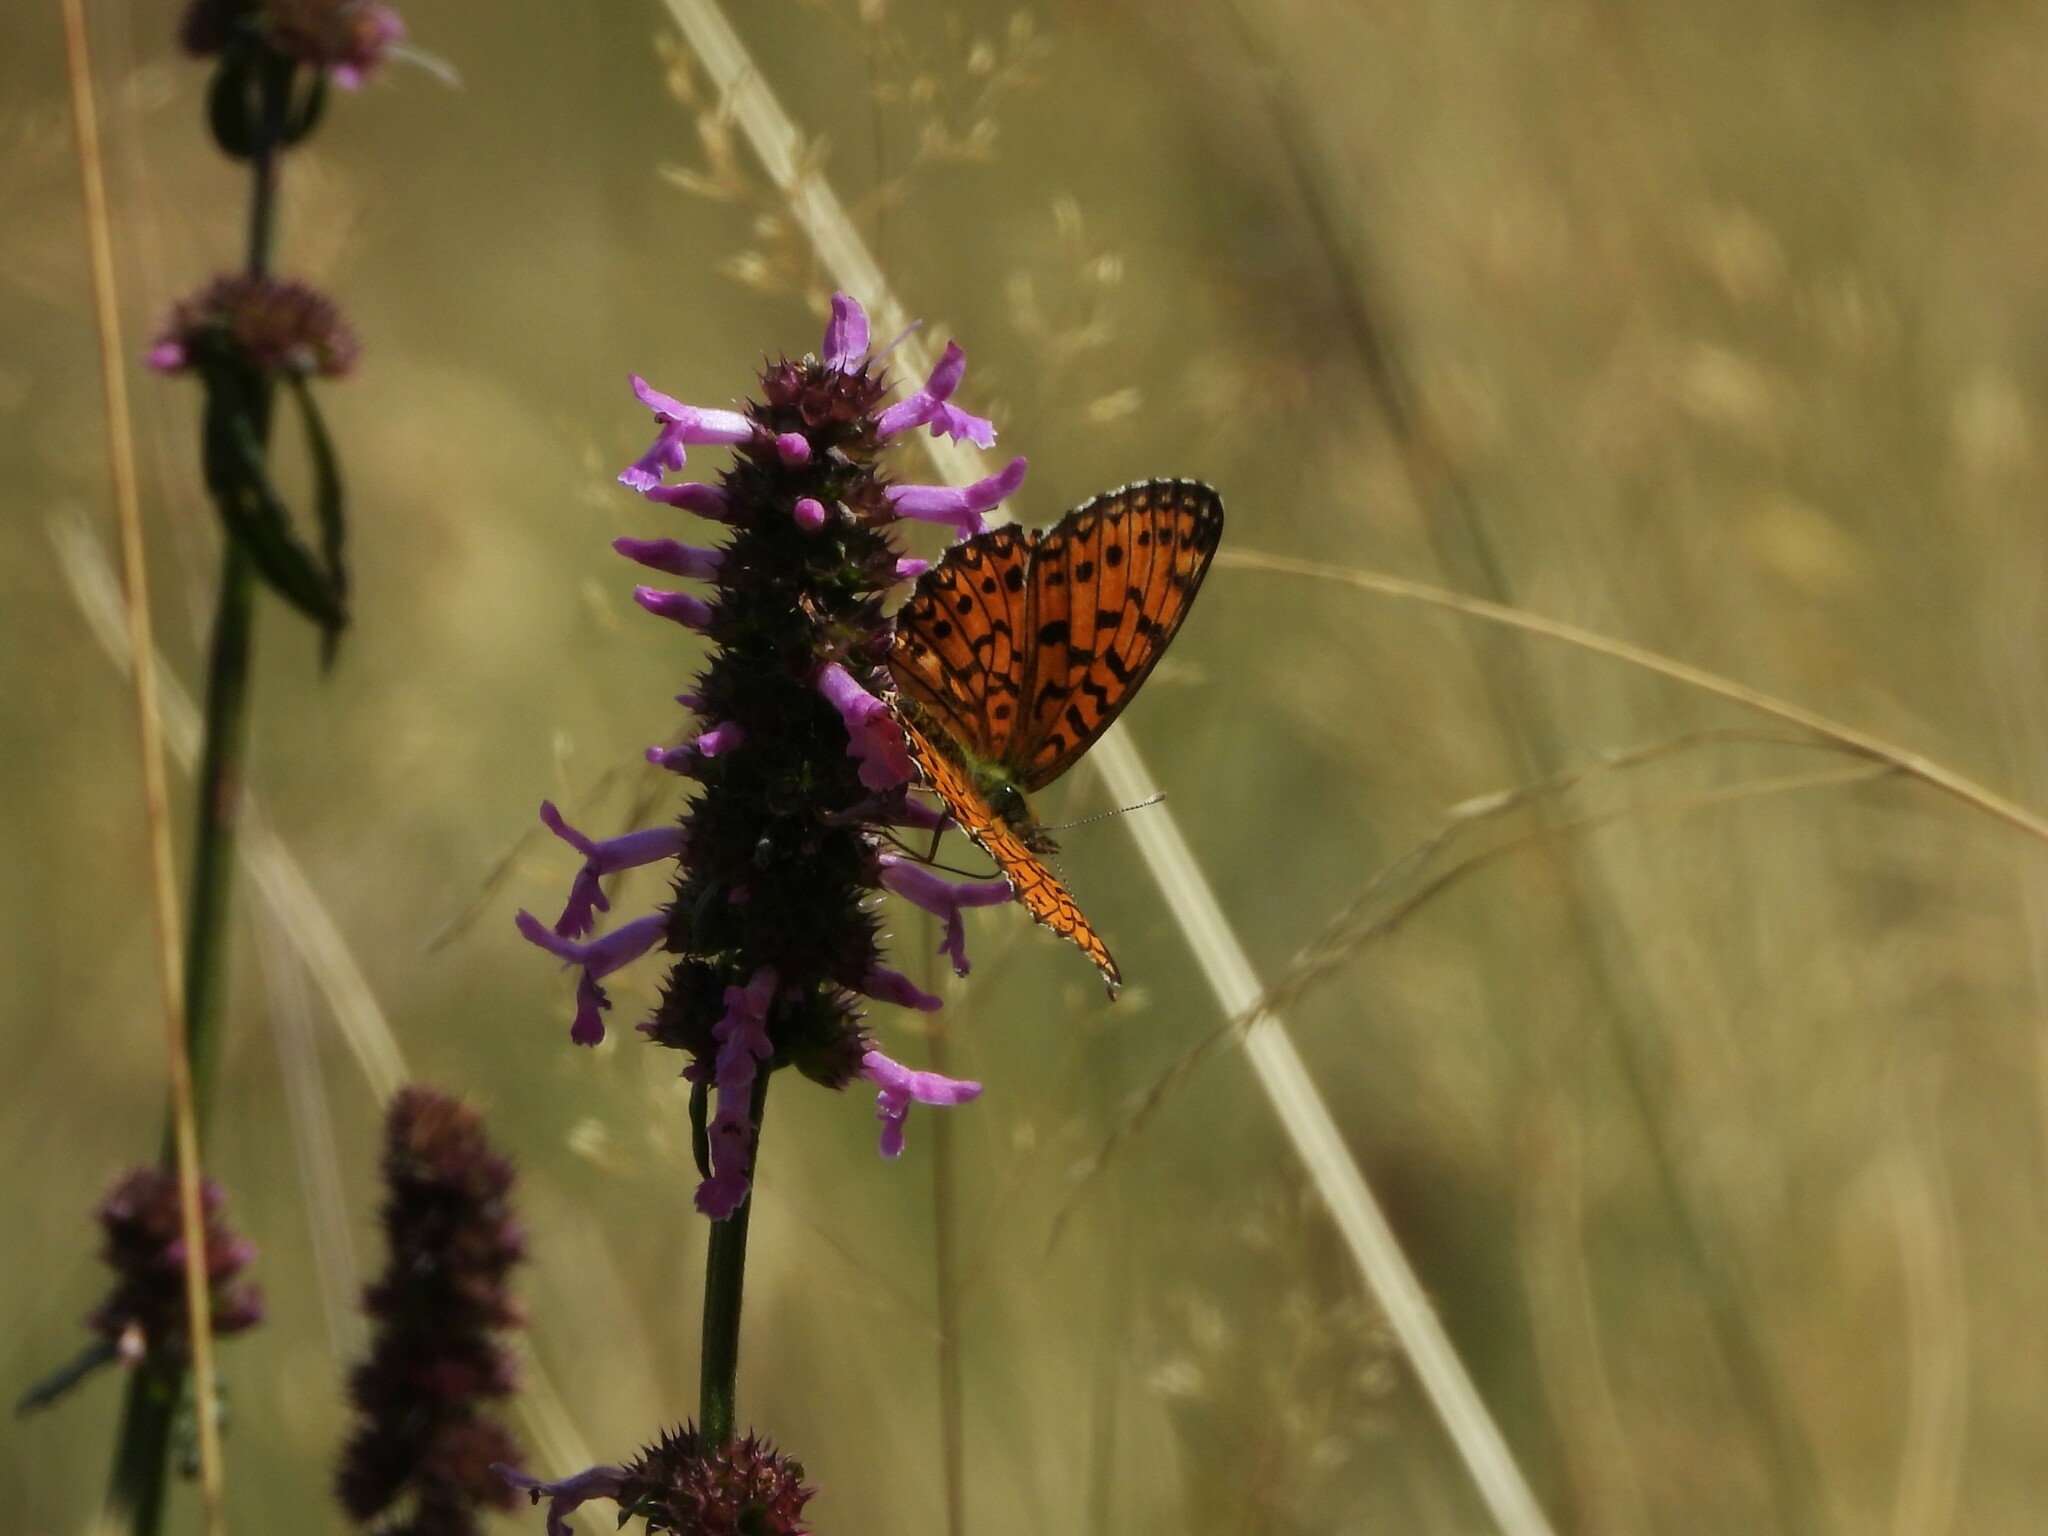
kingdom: Animalia
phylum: Arthropoda
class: Insecta
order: Lepidoptera
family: Nymphalidae
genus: Boloria
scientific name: Boloria selene
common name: Small pearl-bordered fritillary
